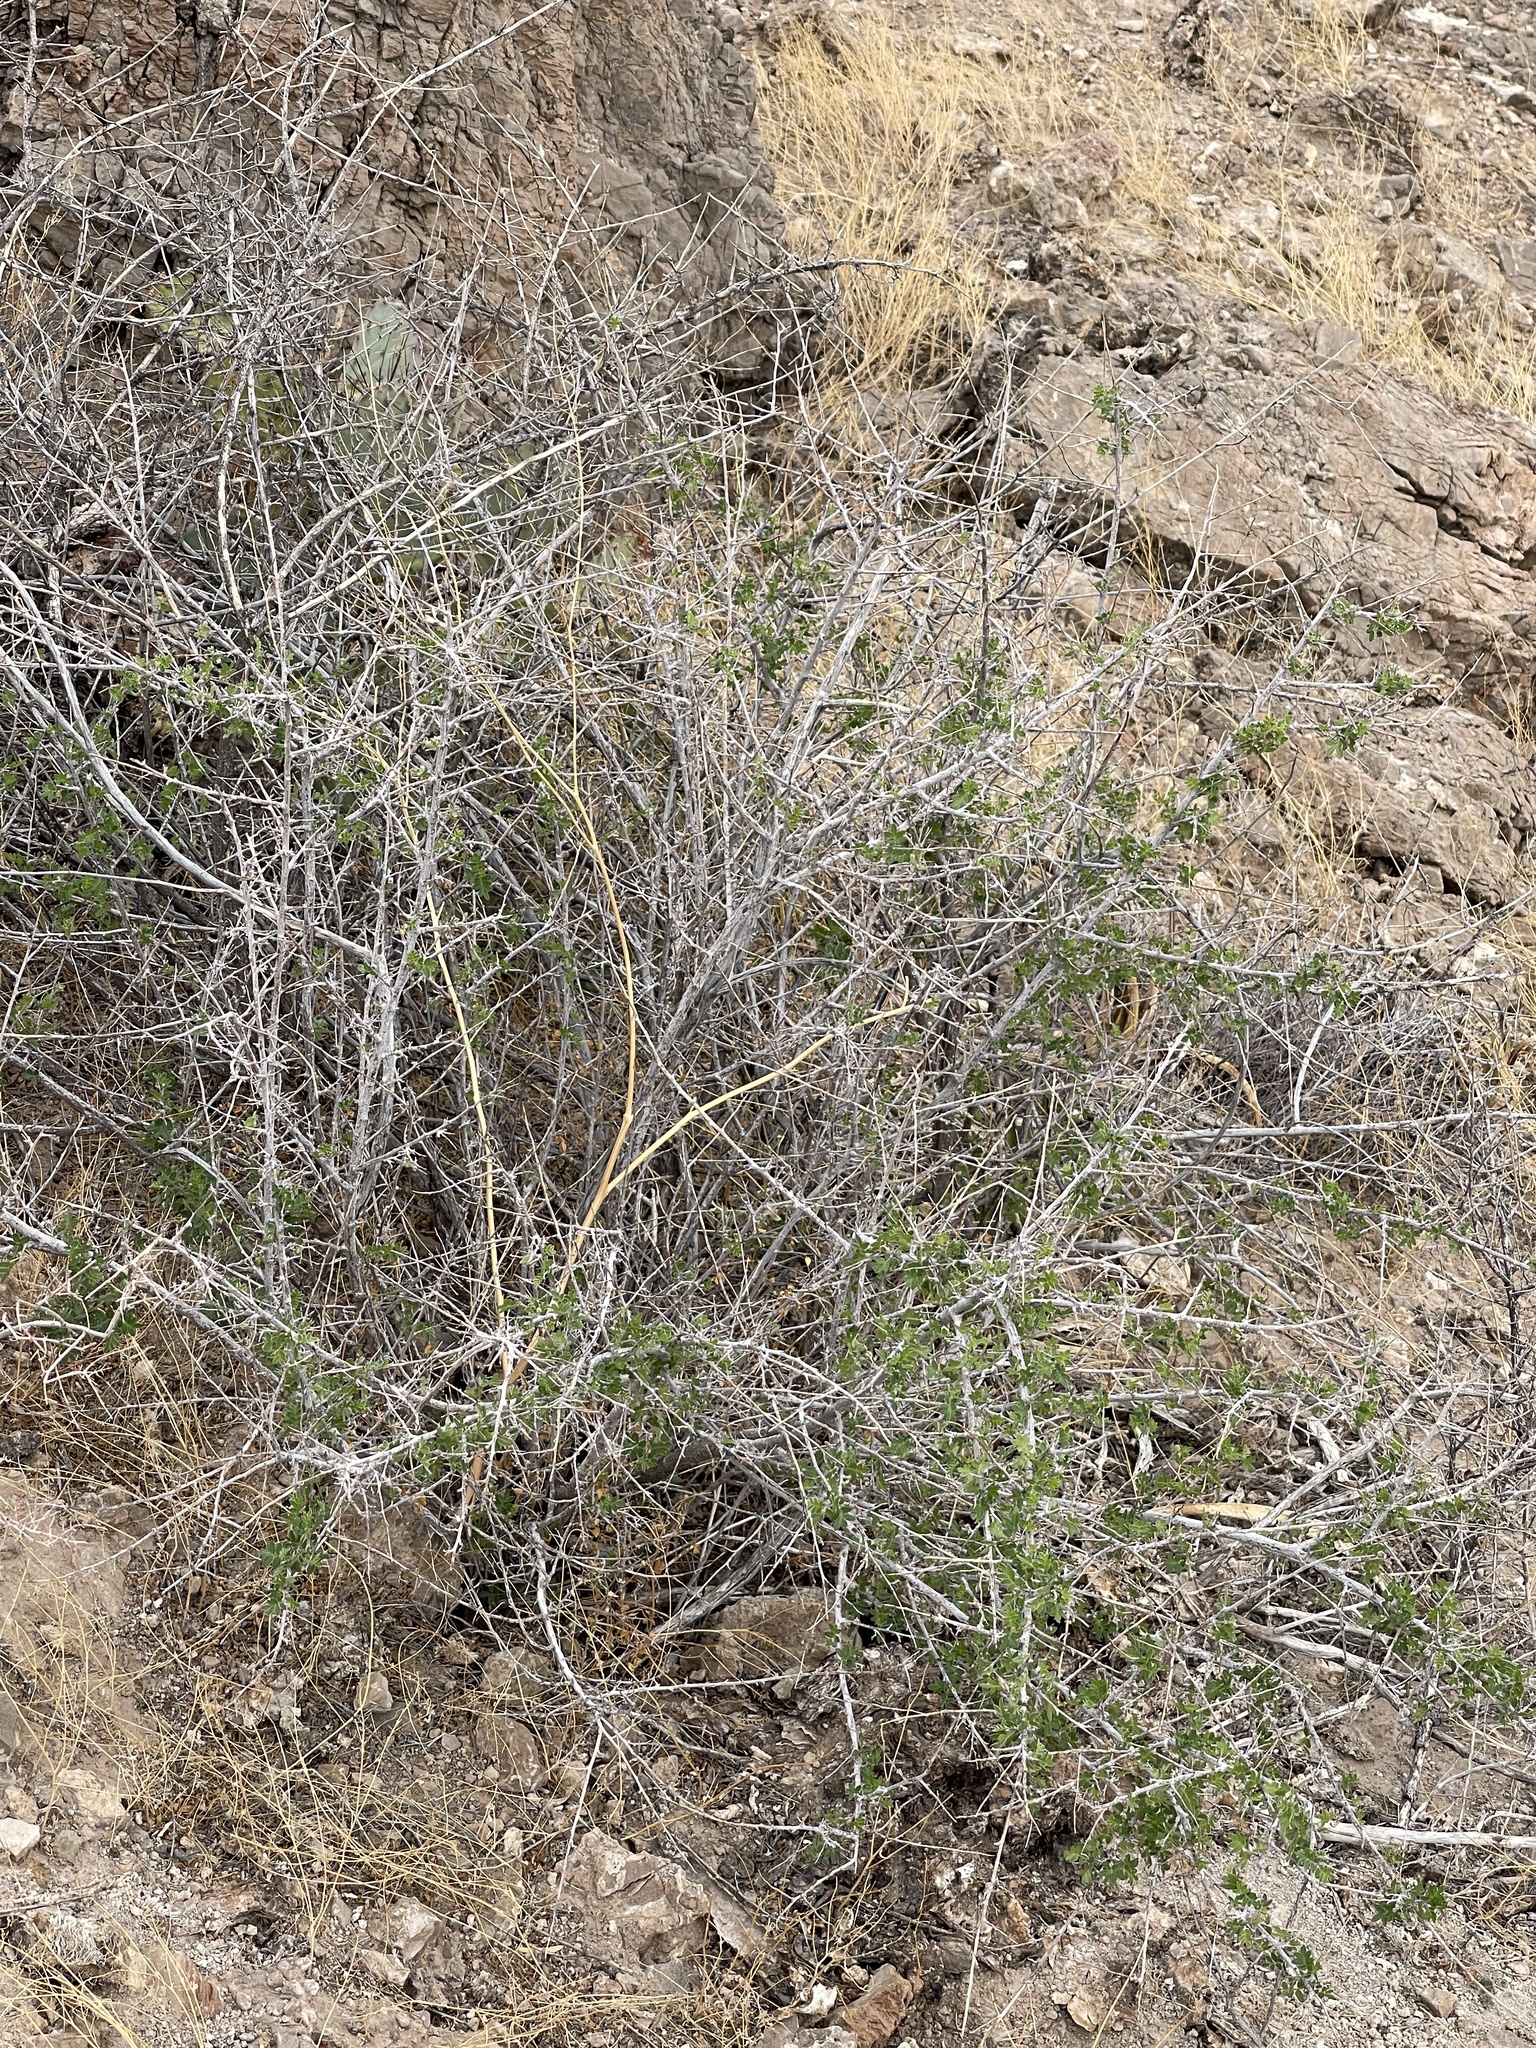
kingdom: Plantae
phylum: Tracheophyta
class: Magnoliopsida
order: Sapindales
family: Anacardiaceae
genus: Rhus
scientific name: Rhus microphylla
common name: Desert sumac
